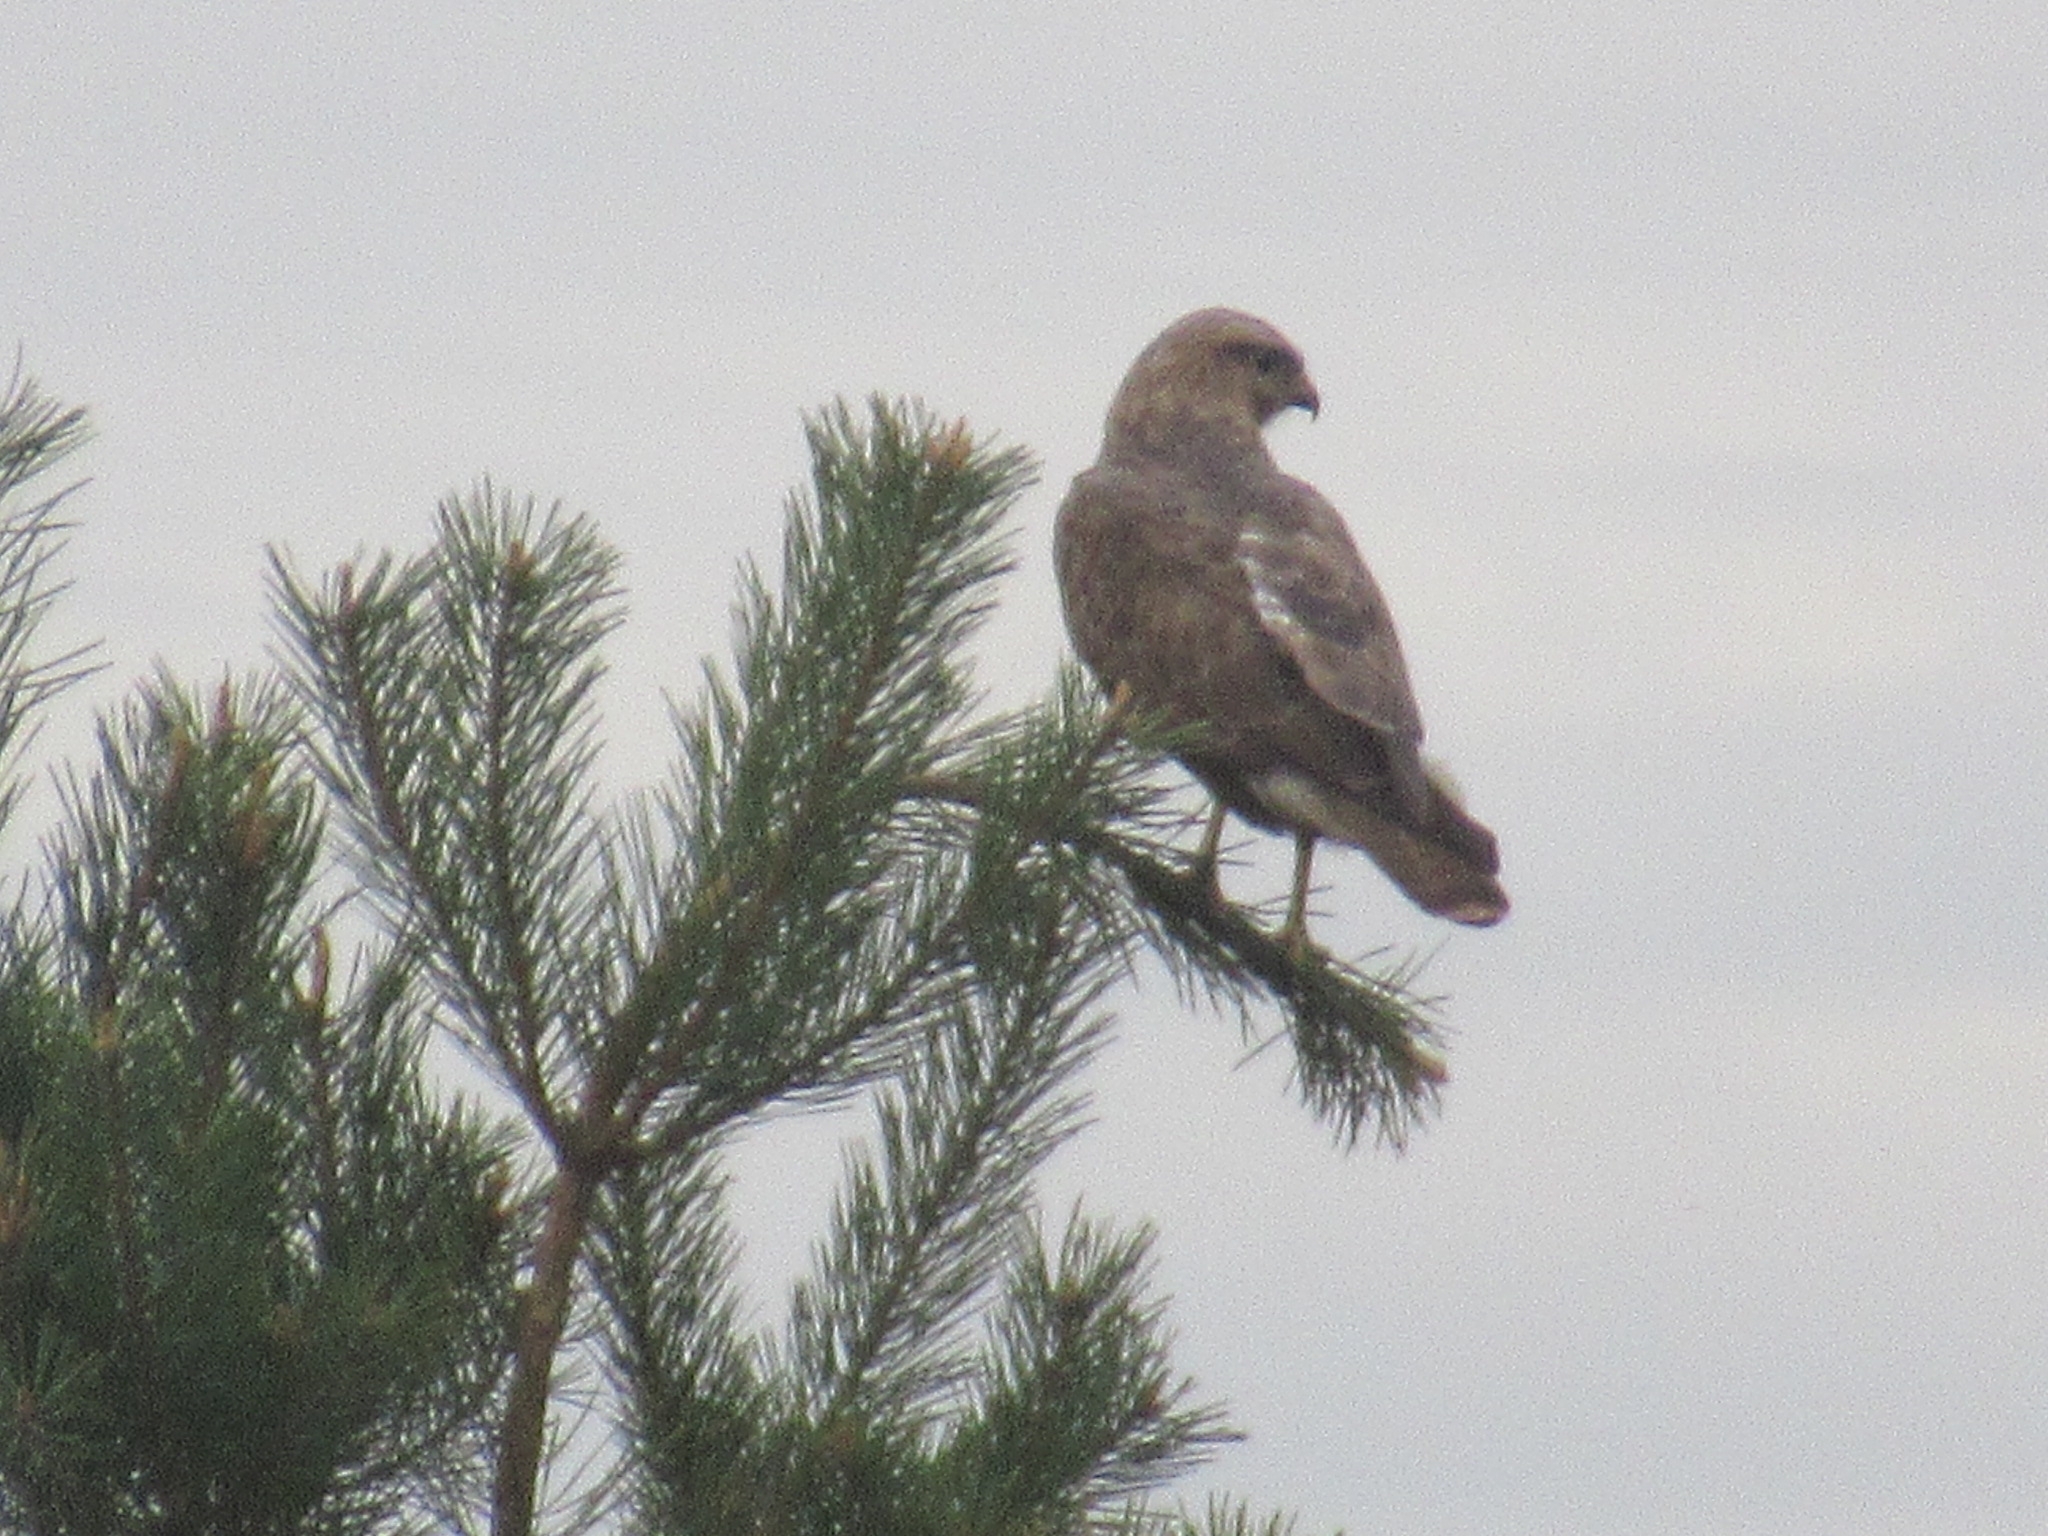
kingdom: Animalia
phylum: Chordata
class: Aves
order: Accipitriformes
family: Accipitridae
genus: Buteo
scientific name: Buteo buteo
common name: Common buzzard
